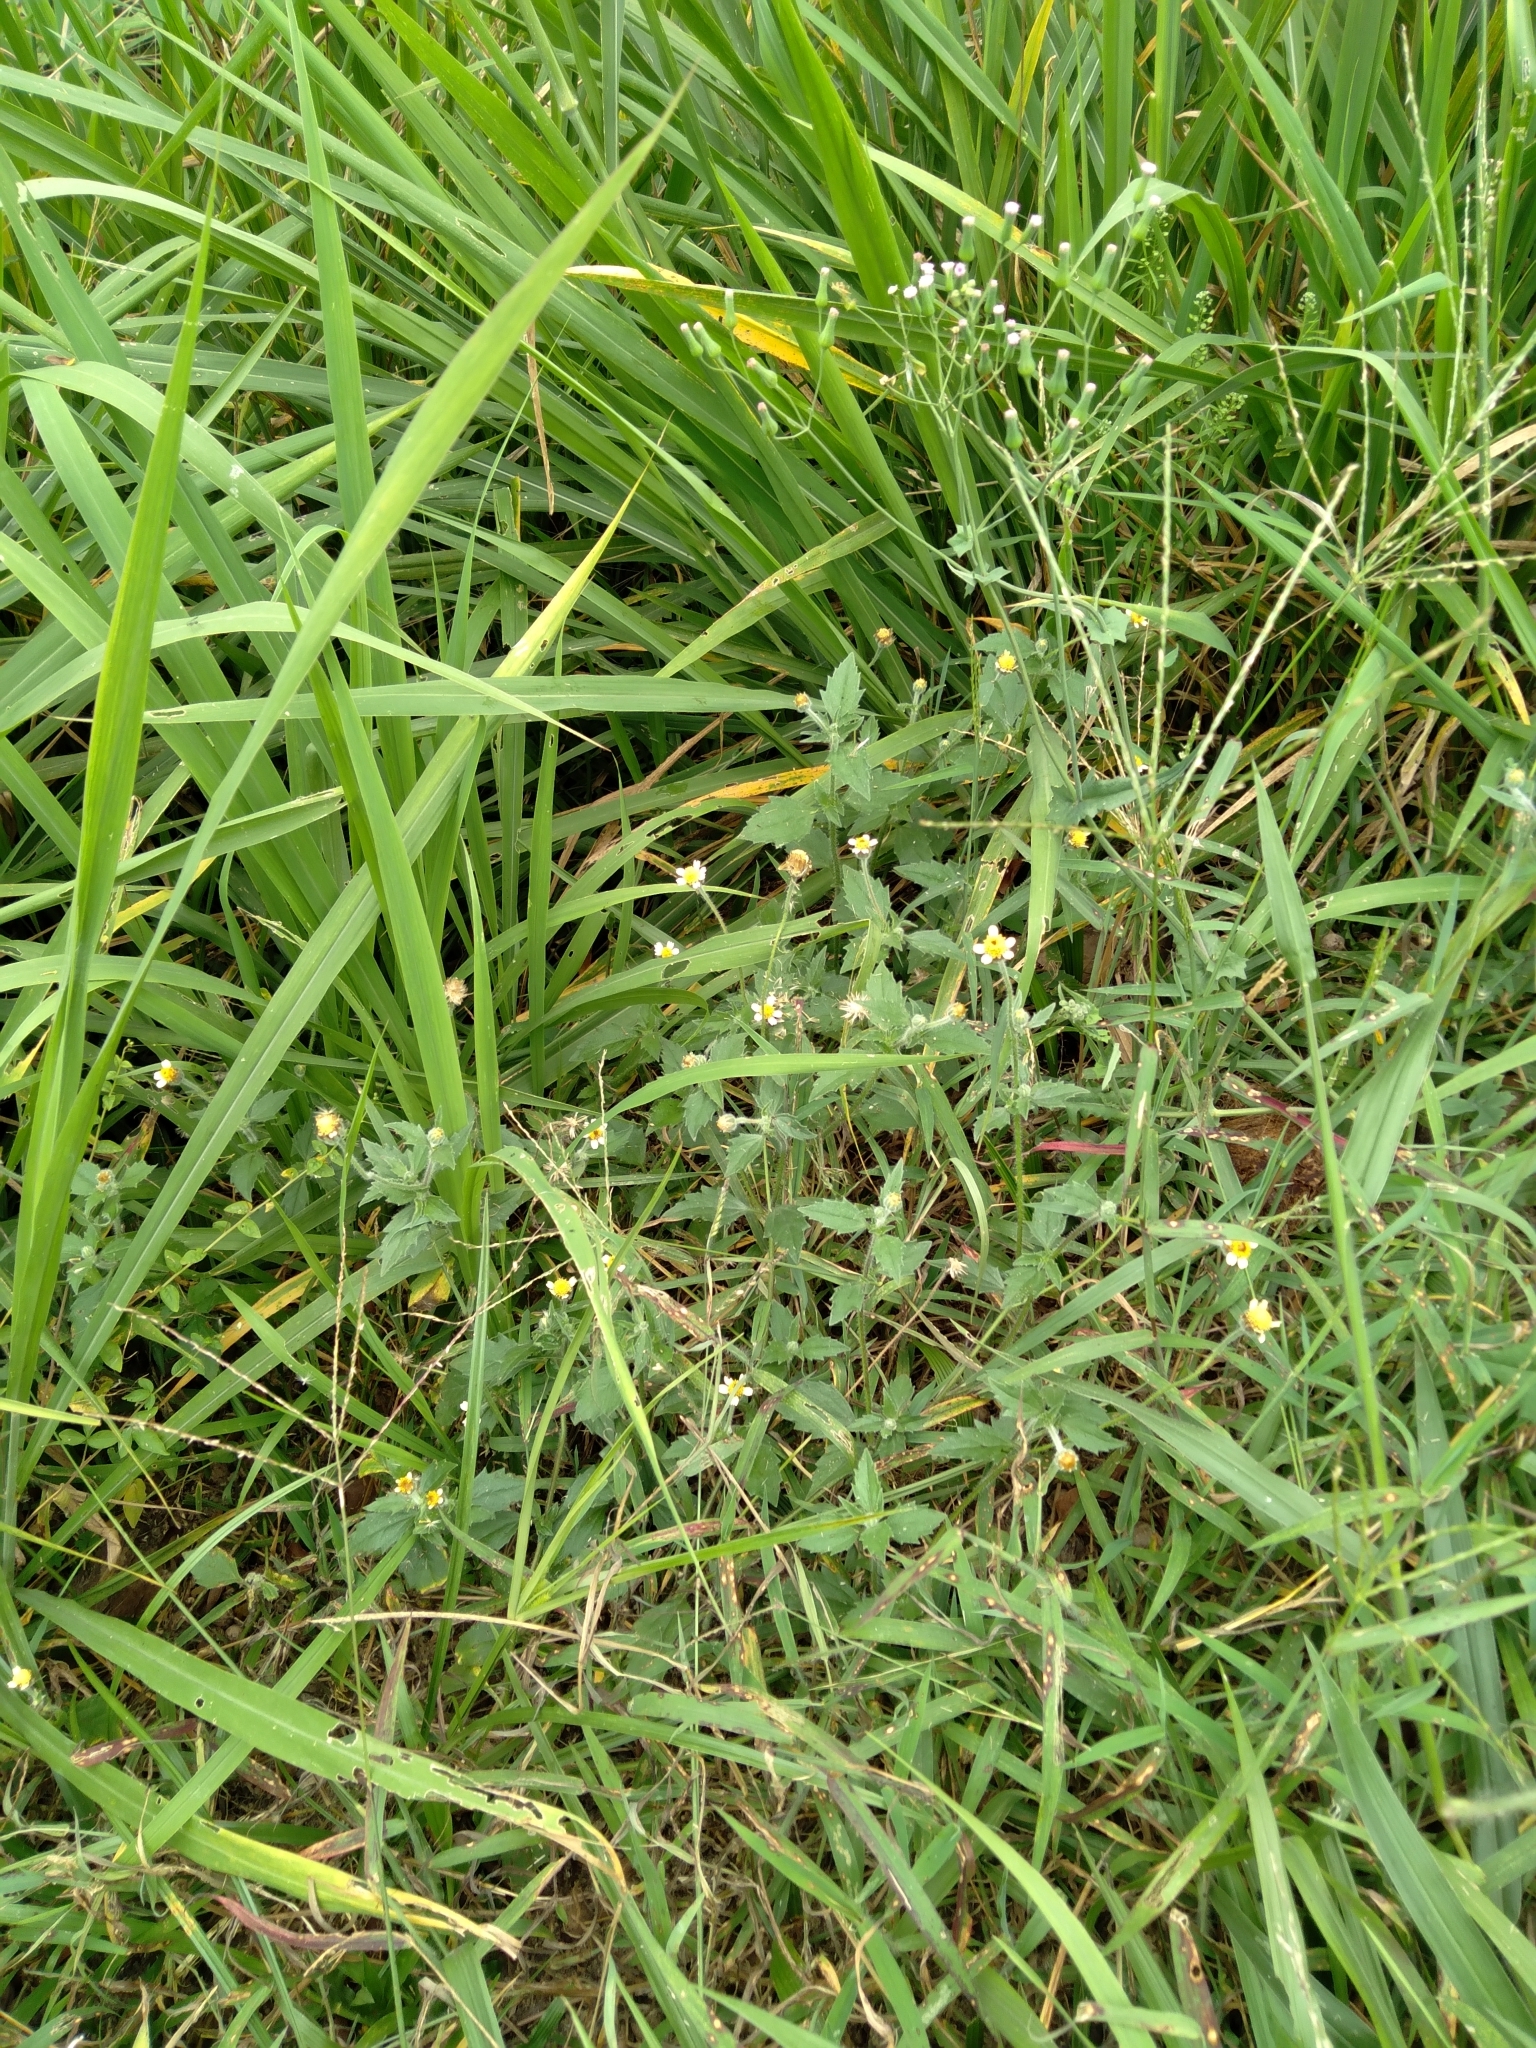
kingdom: Plantae
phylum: Tracheophyta
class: Magnoliopsida
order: Asterales
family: Asteraceae
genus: Tridax
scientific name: Tridax procumbens
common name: Coatbuttons
